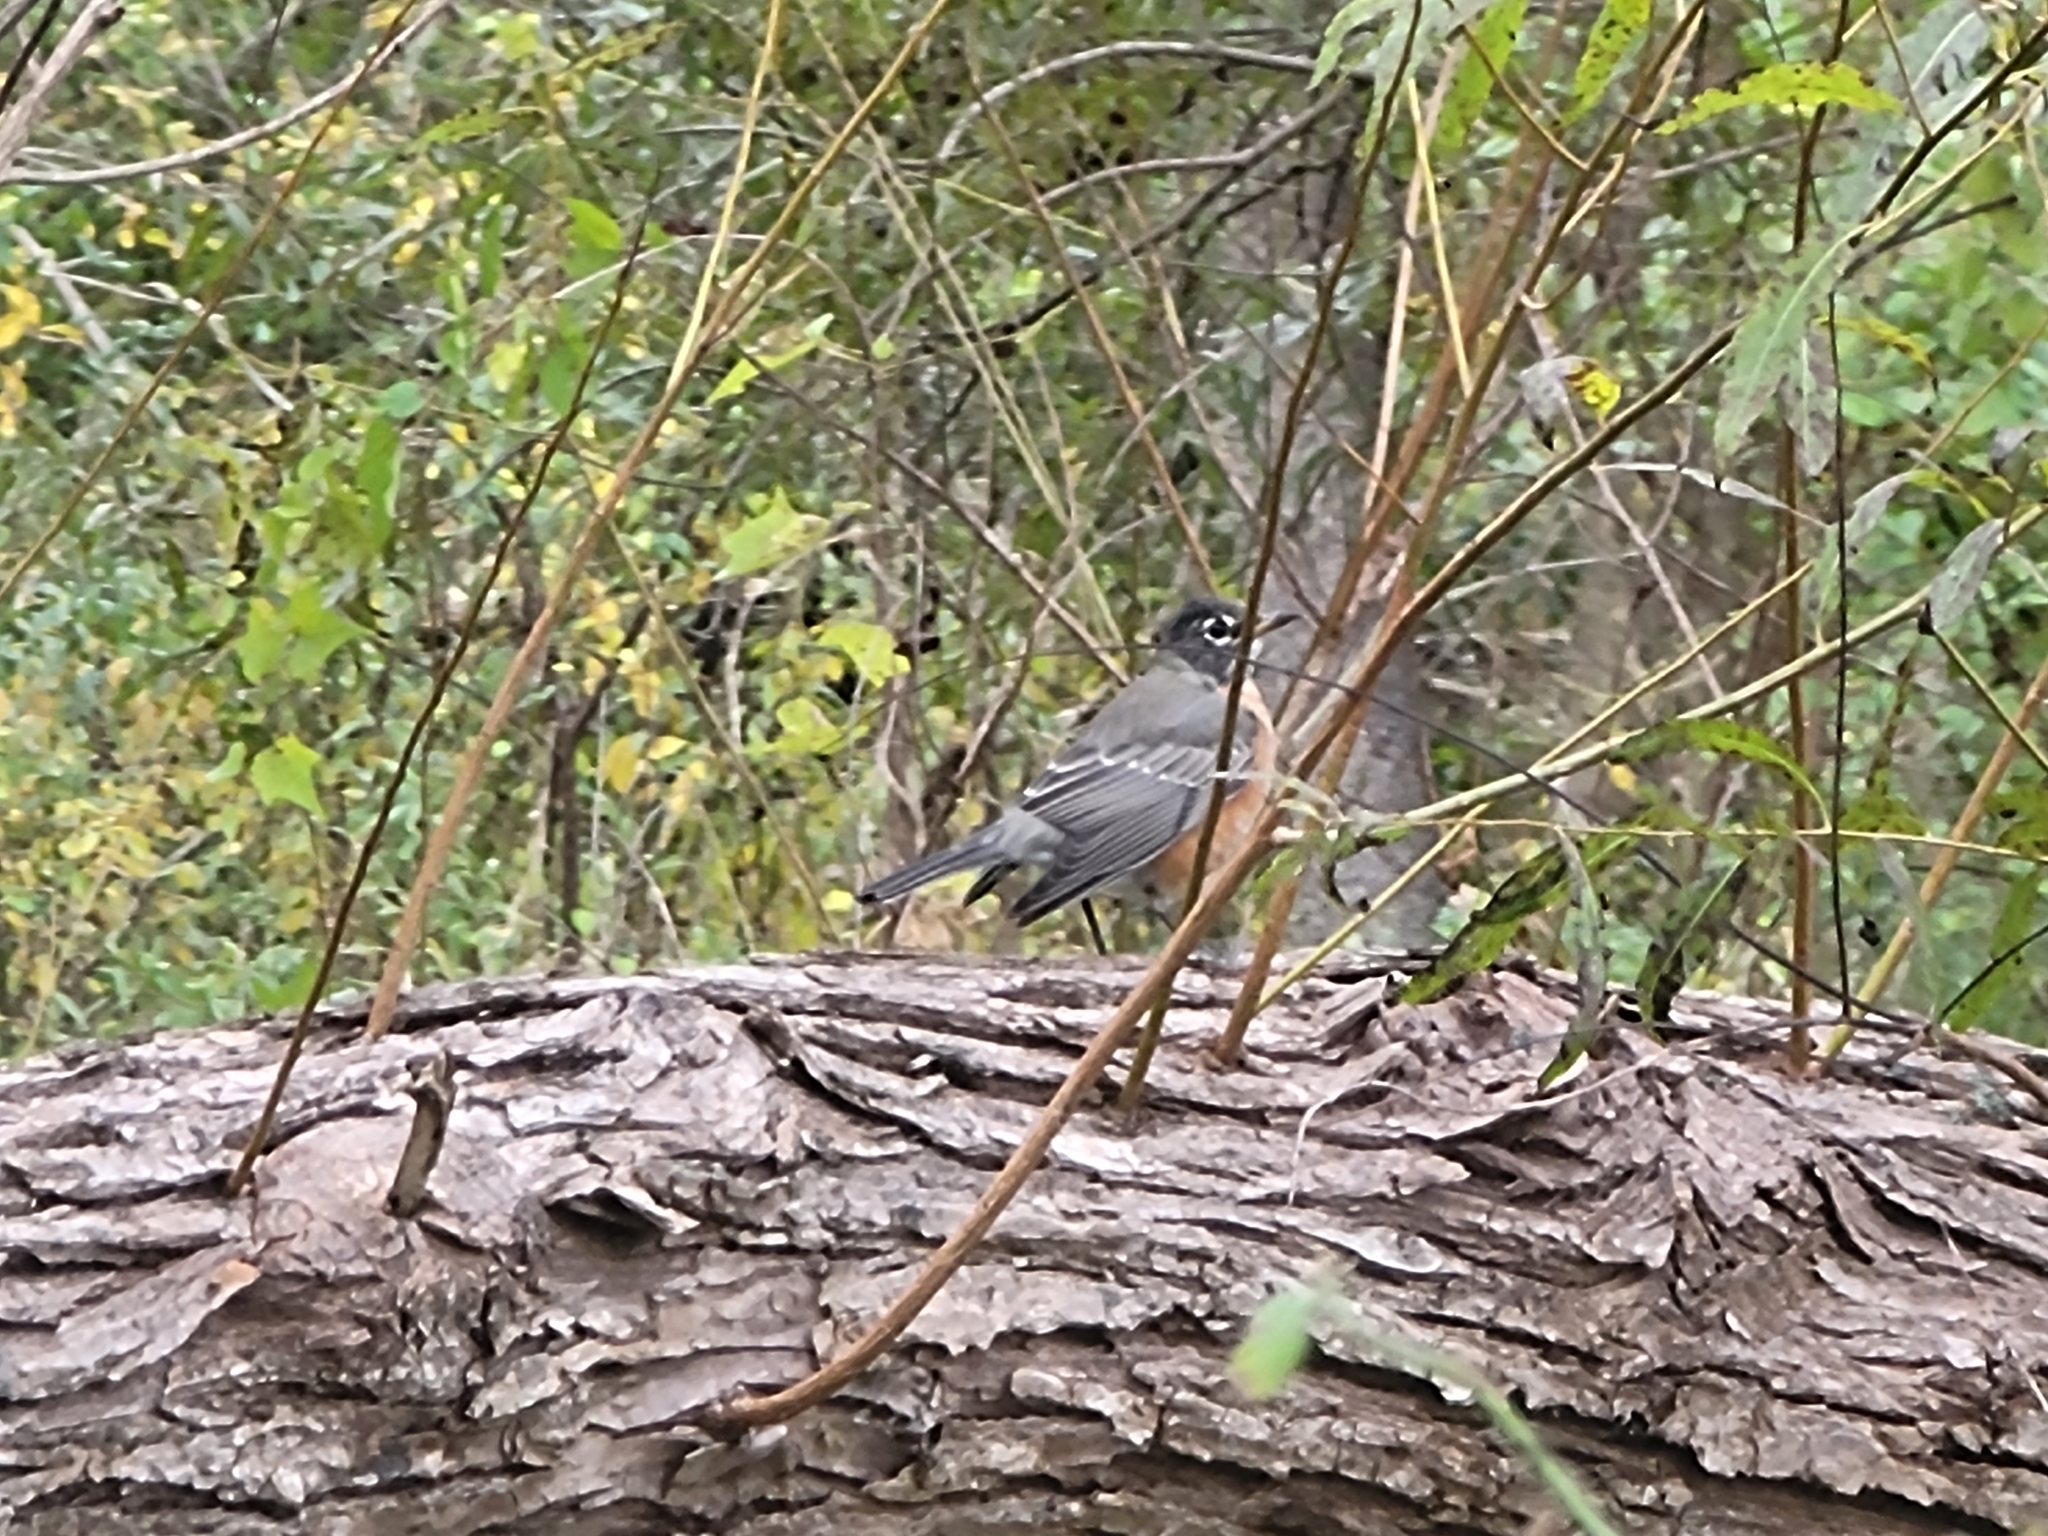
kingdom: Animalia
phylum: Chordata
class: Aves
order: Passeriformes
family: Turdidae
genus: Turdus
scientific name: Turdus migratorius
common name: American robin
